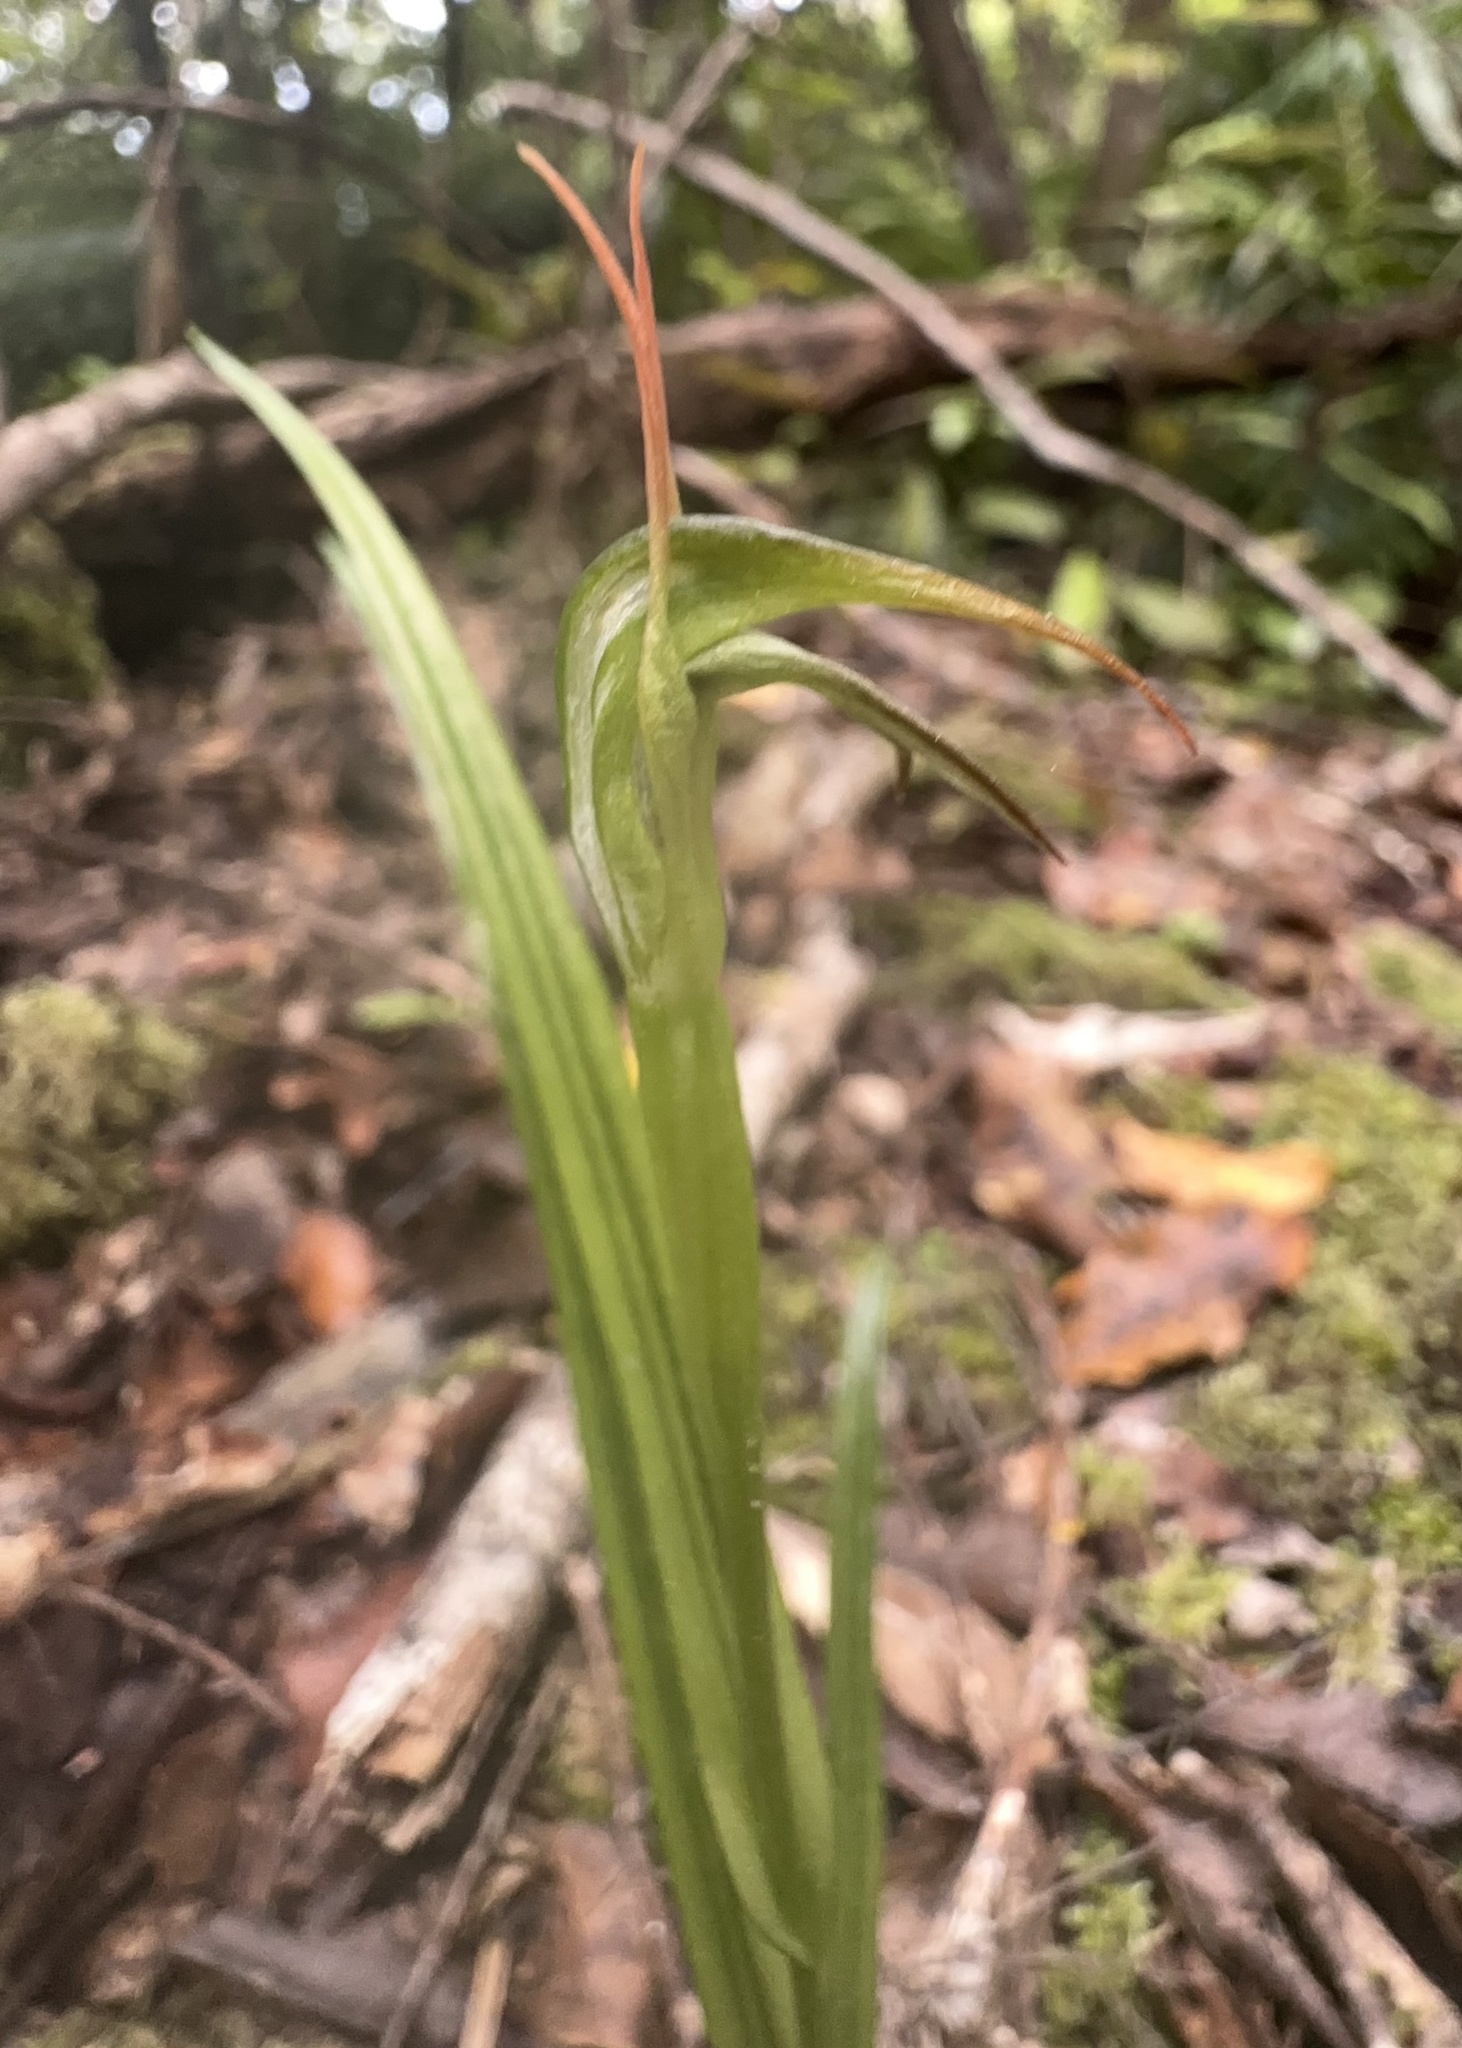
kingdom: Plantae
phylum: Tracheophyta
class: Liliopsida
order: Asparagales
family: Orchidaceae
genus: Pterostylis
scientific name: Pterostylis graminea
